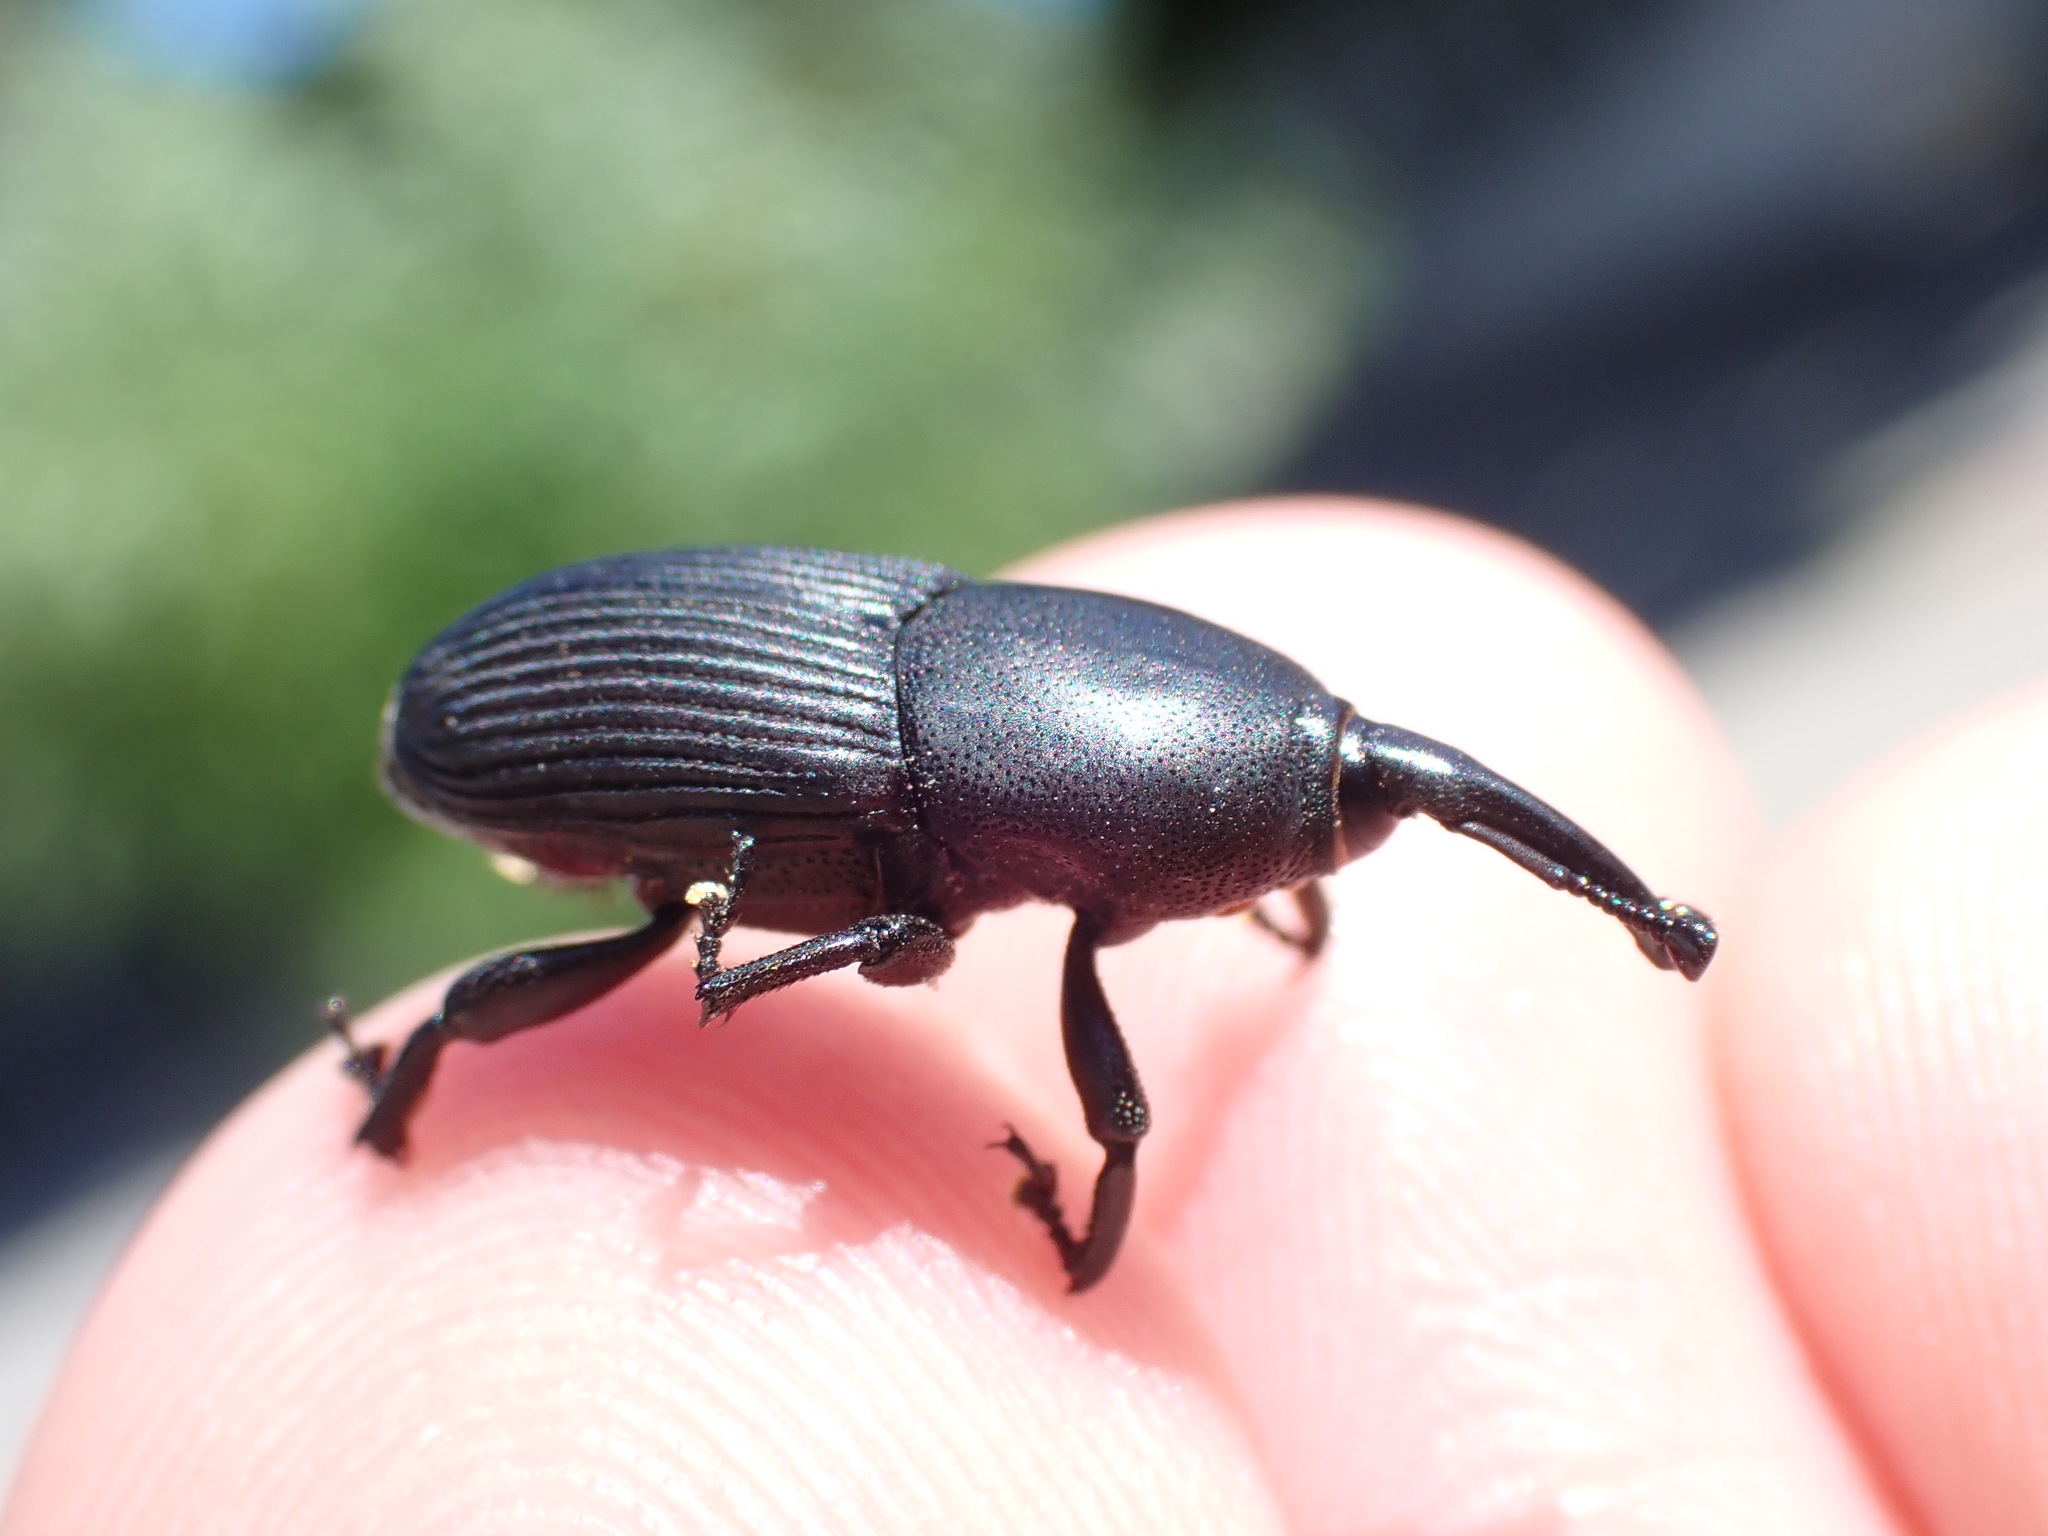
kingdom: Animalia
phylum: Arthropoda
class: Insecta
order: Coleoptera
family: Dryophthoridae
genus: Scyphophorus
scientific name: Scyphophorus acupunctatus
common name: Weevil
